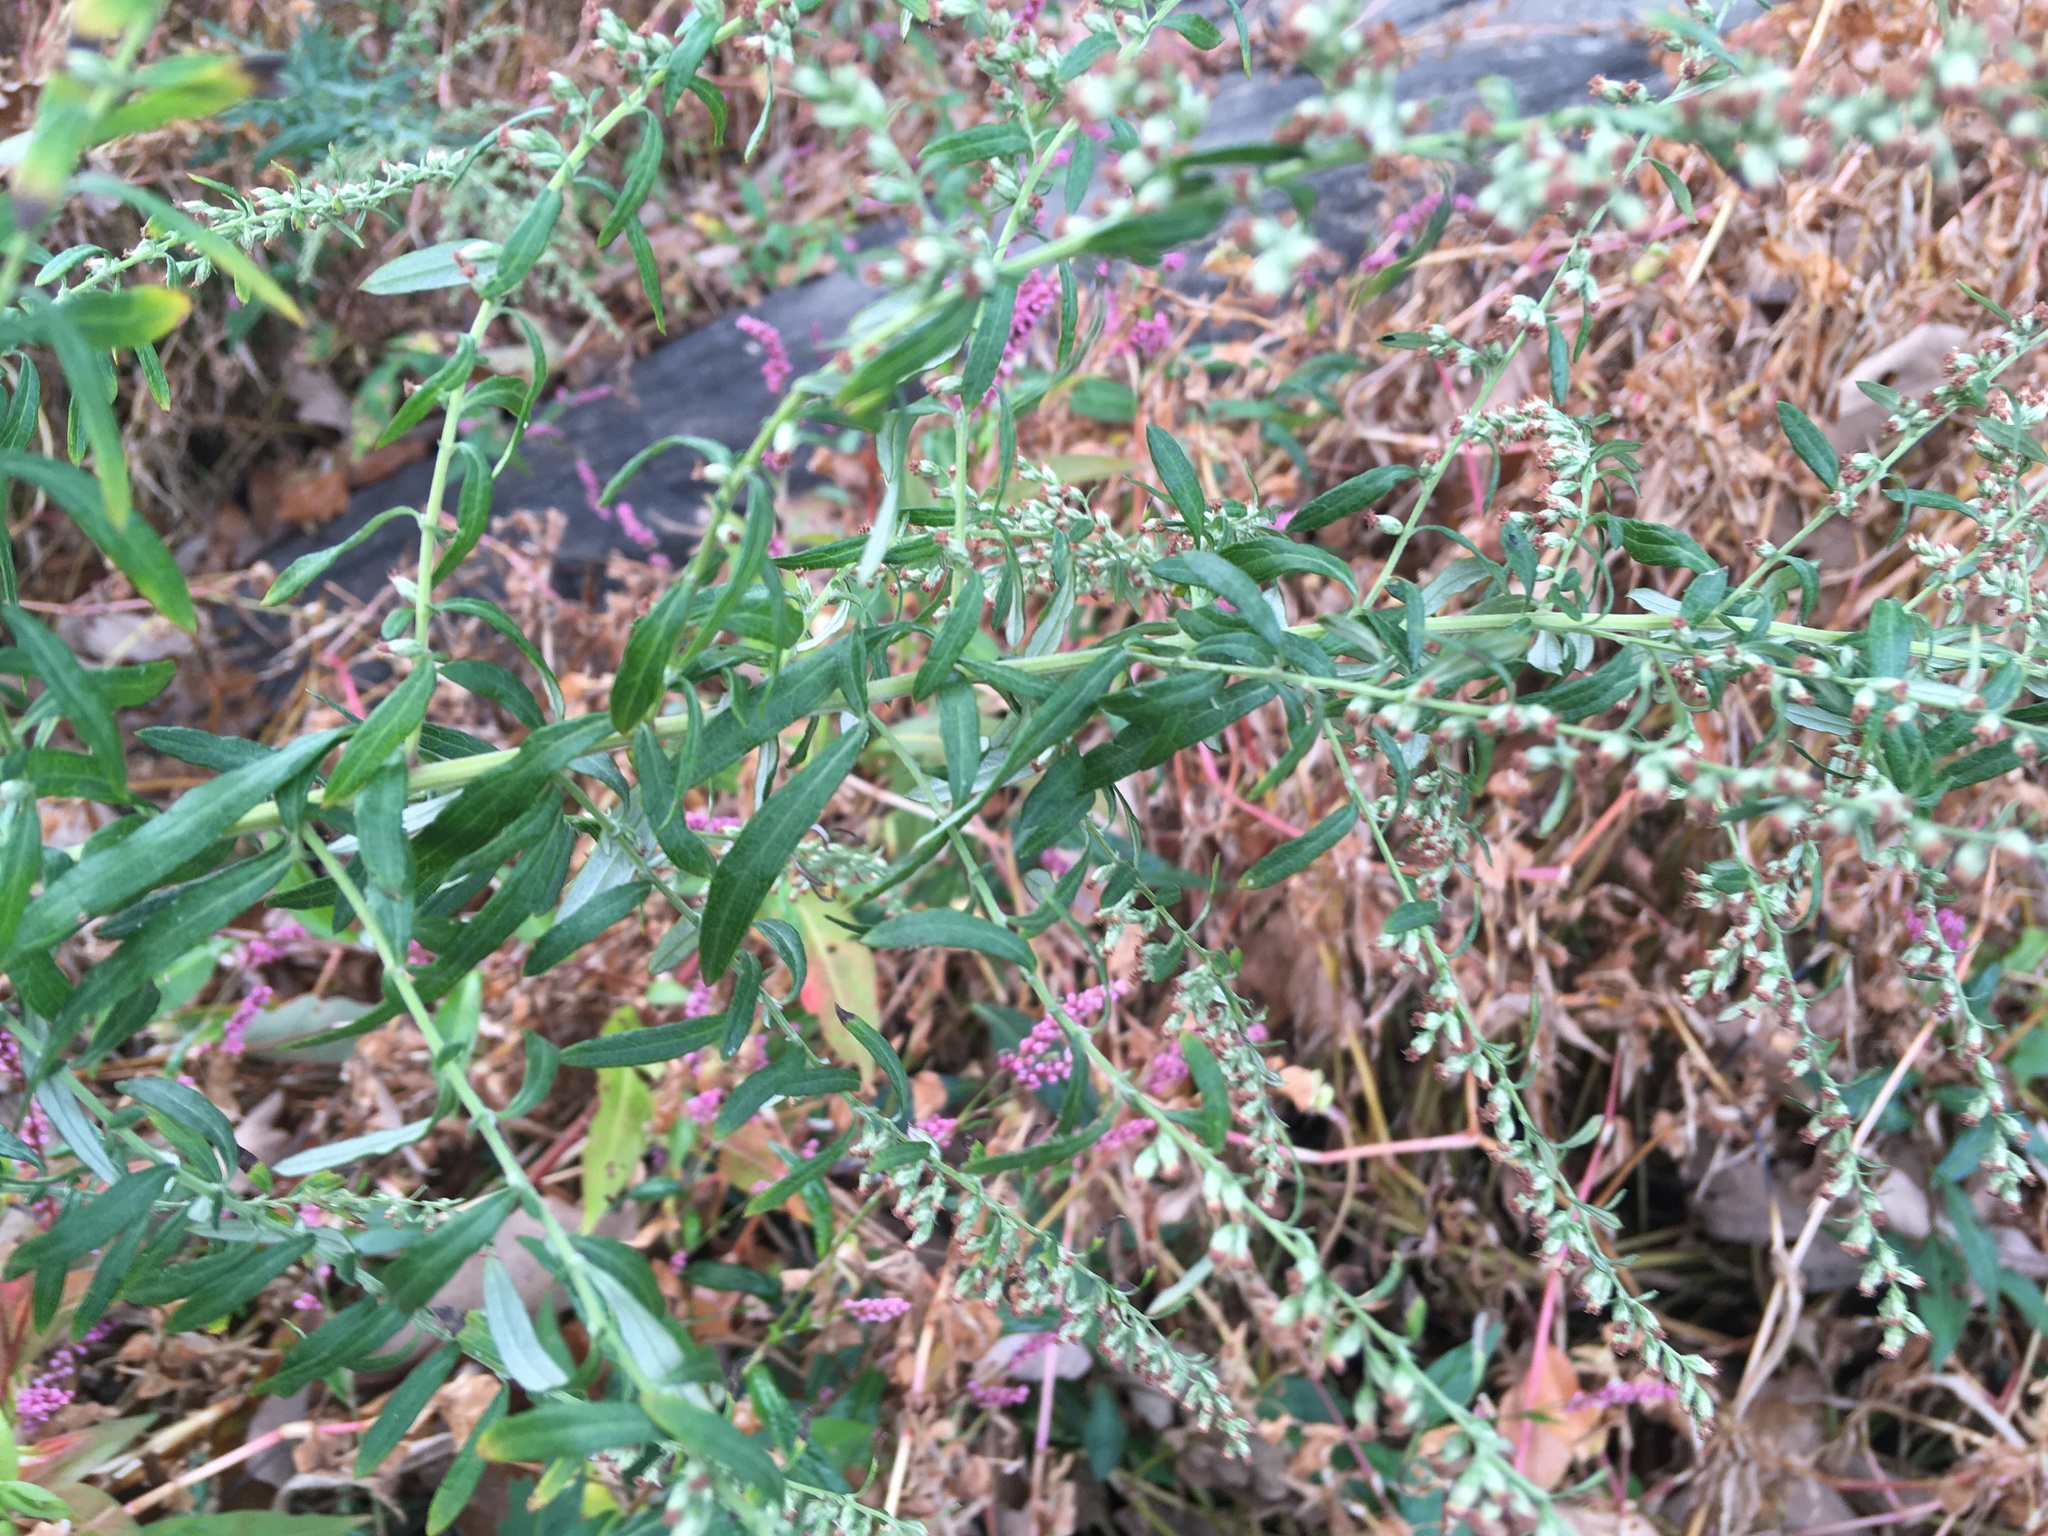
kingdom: Plantae
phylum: Tracheophyta
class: Magnoliopsida
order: Asterales
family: Asteraceae
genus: Artemisia
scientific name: Artemisia vulgaris
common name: Mugwort
